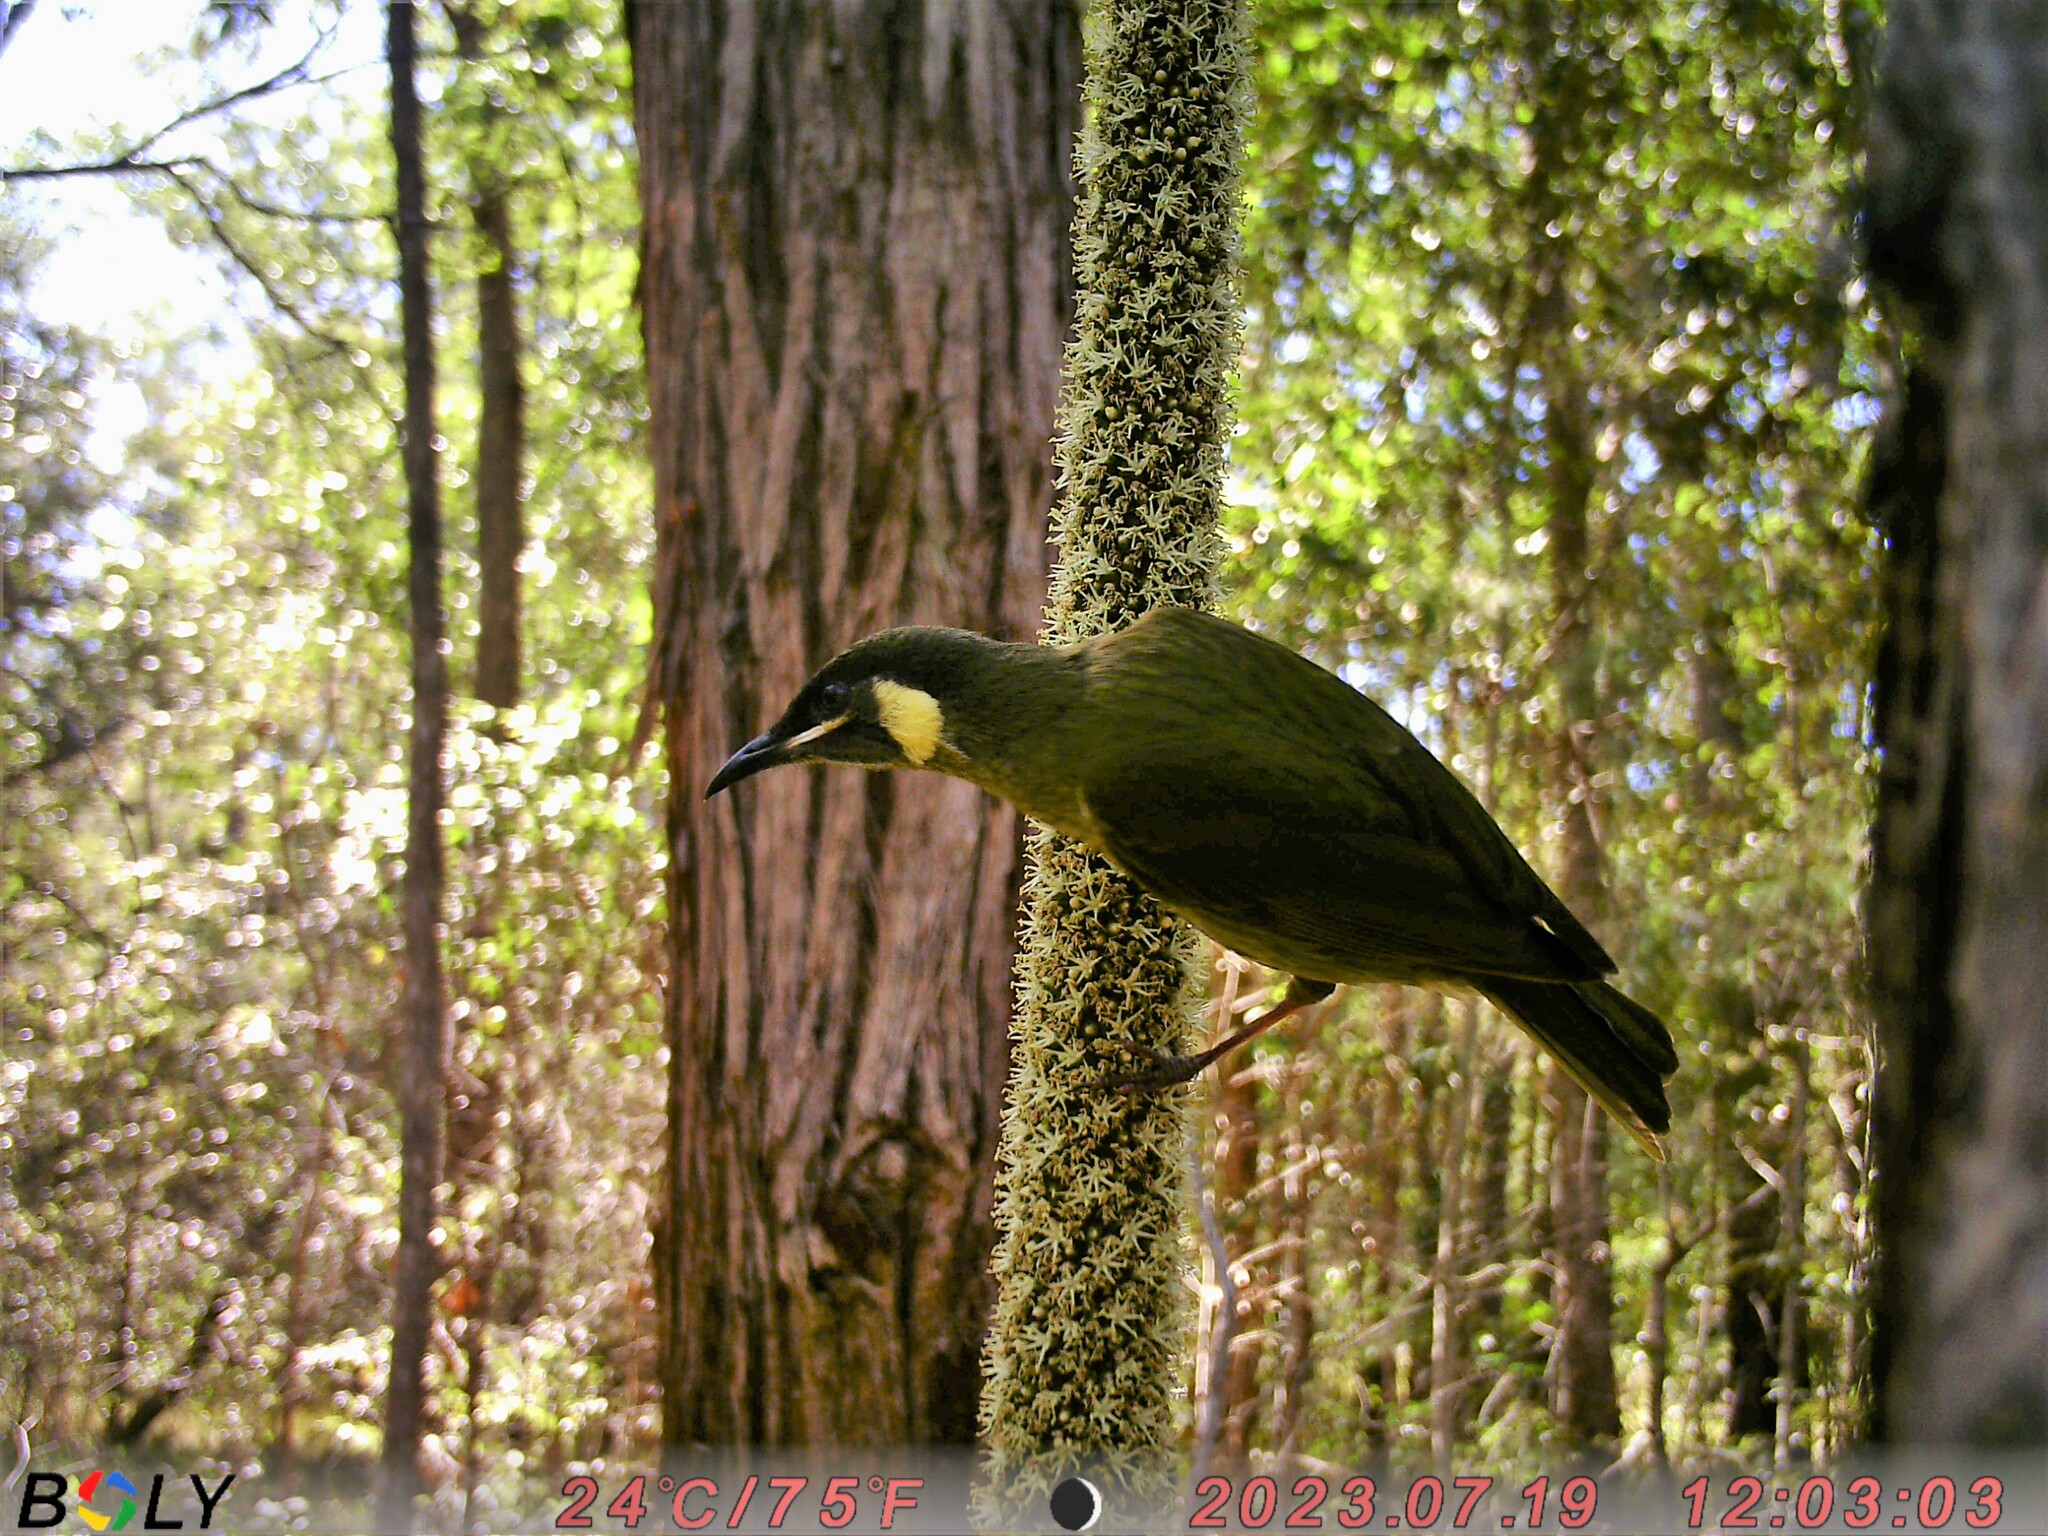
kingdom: Animalia
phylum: Chordata
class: Aves
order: Passeriformes
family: Meliphagidae
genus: Meliphaga
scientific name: Meliphaga lewinii
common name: Lewin's honeyeater
